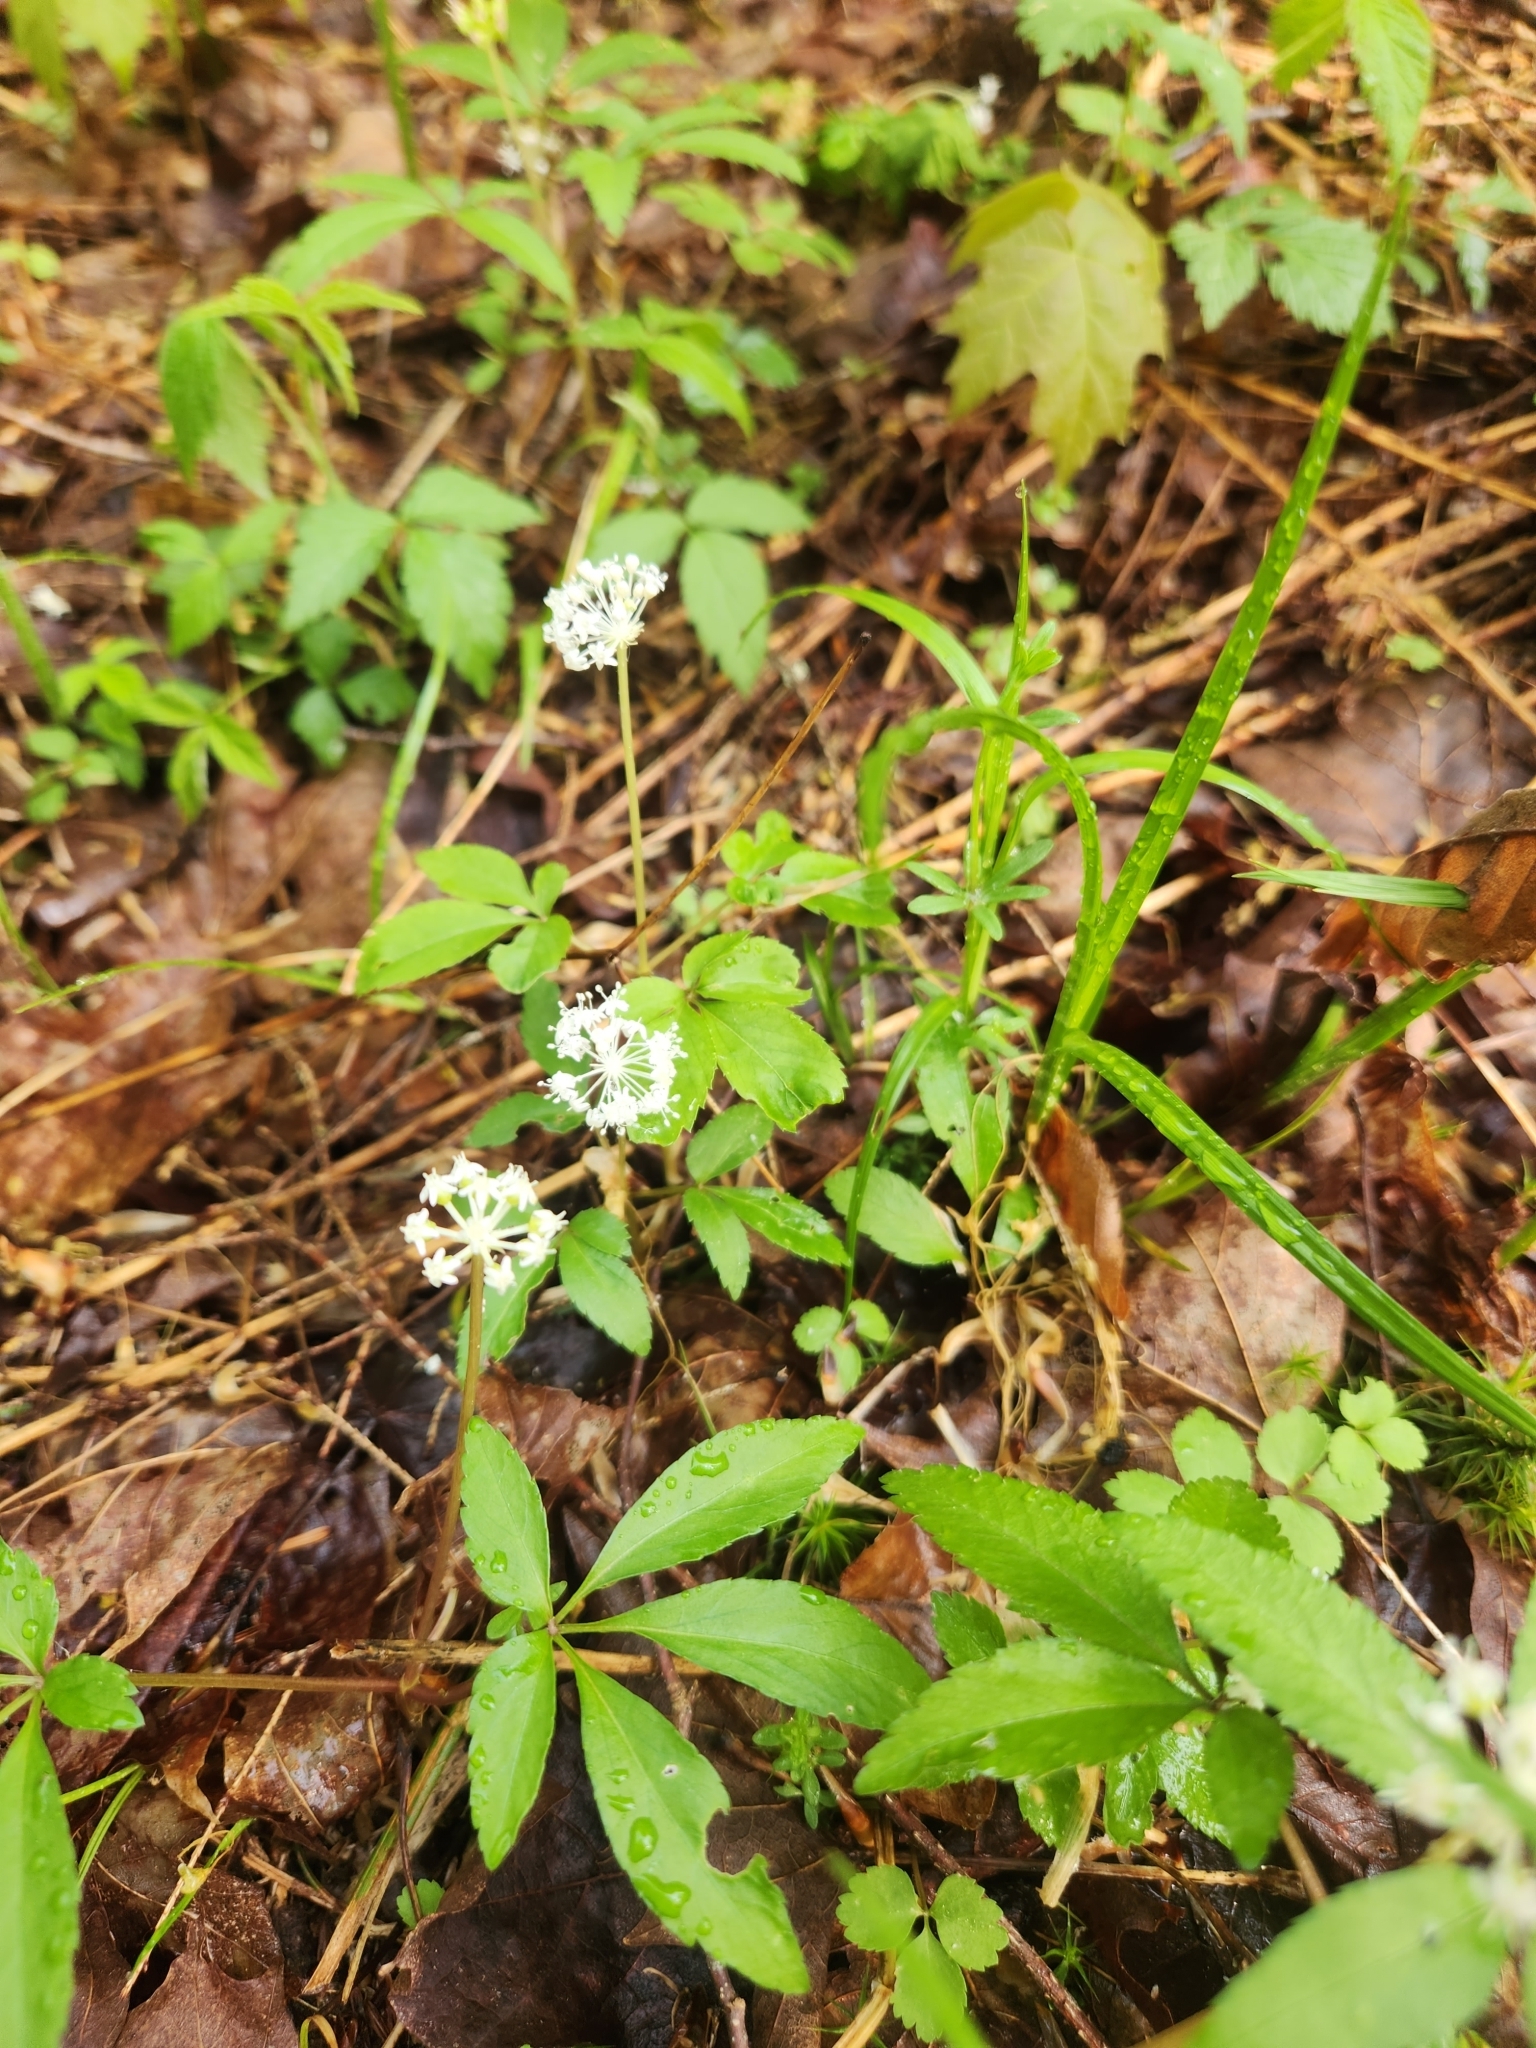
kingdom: Plantae
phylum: Tracheophyta
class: Magnoliopsida
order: Apiales
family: Araliaceae
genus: Panax
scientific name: Panax trifolius
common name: Dwarf ginseng
